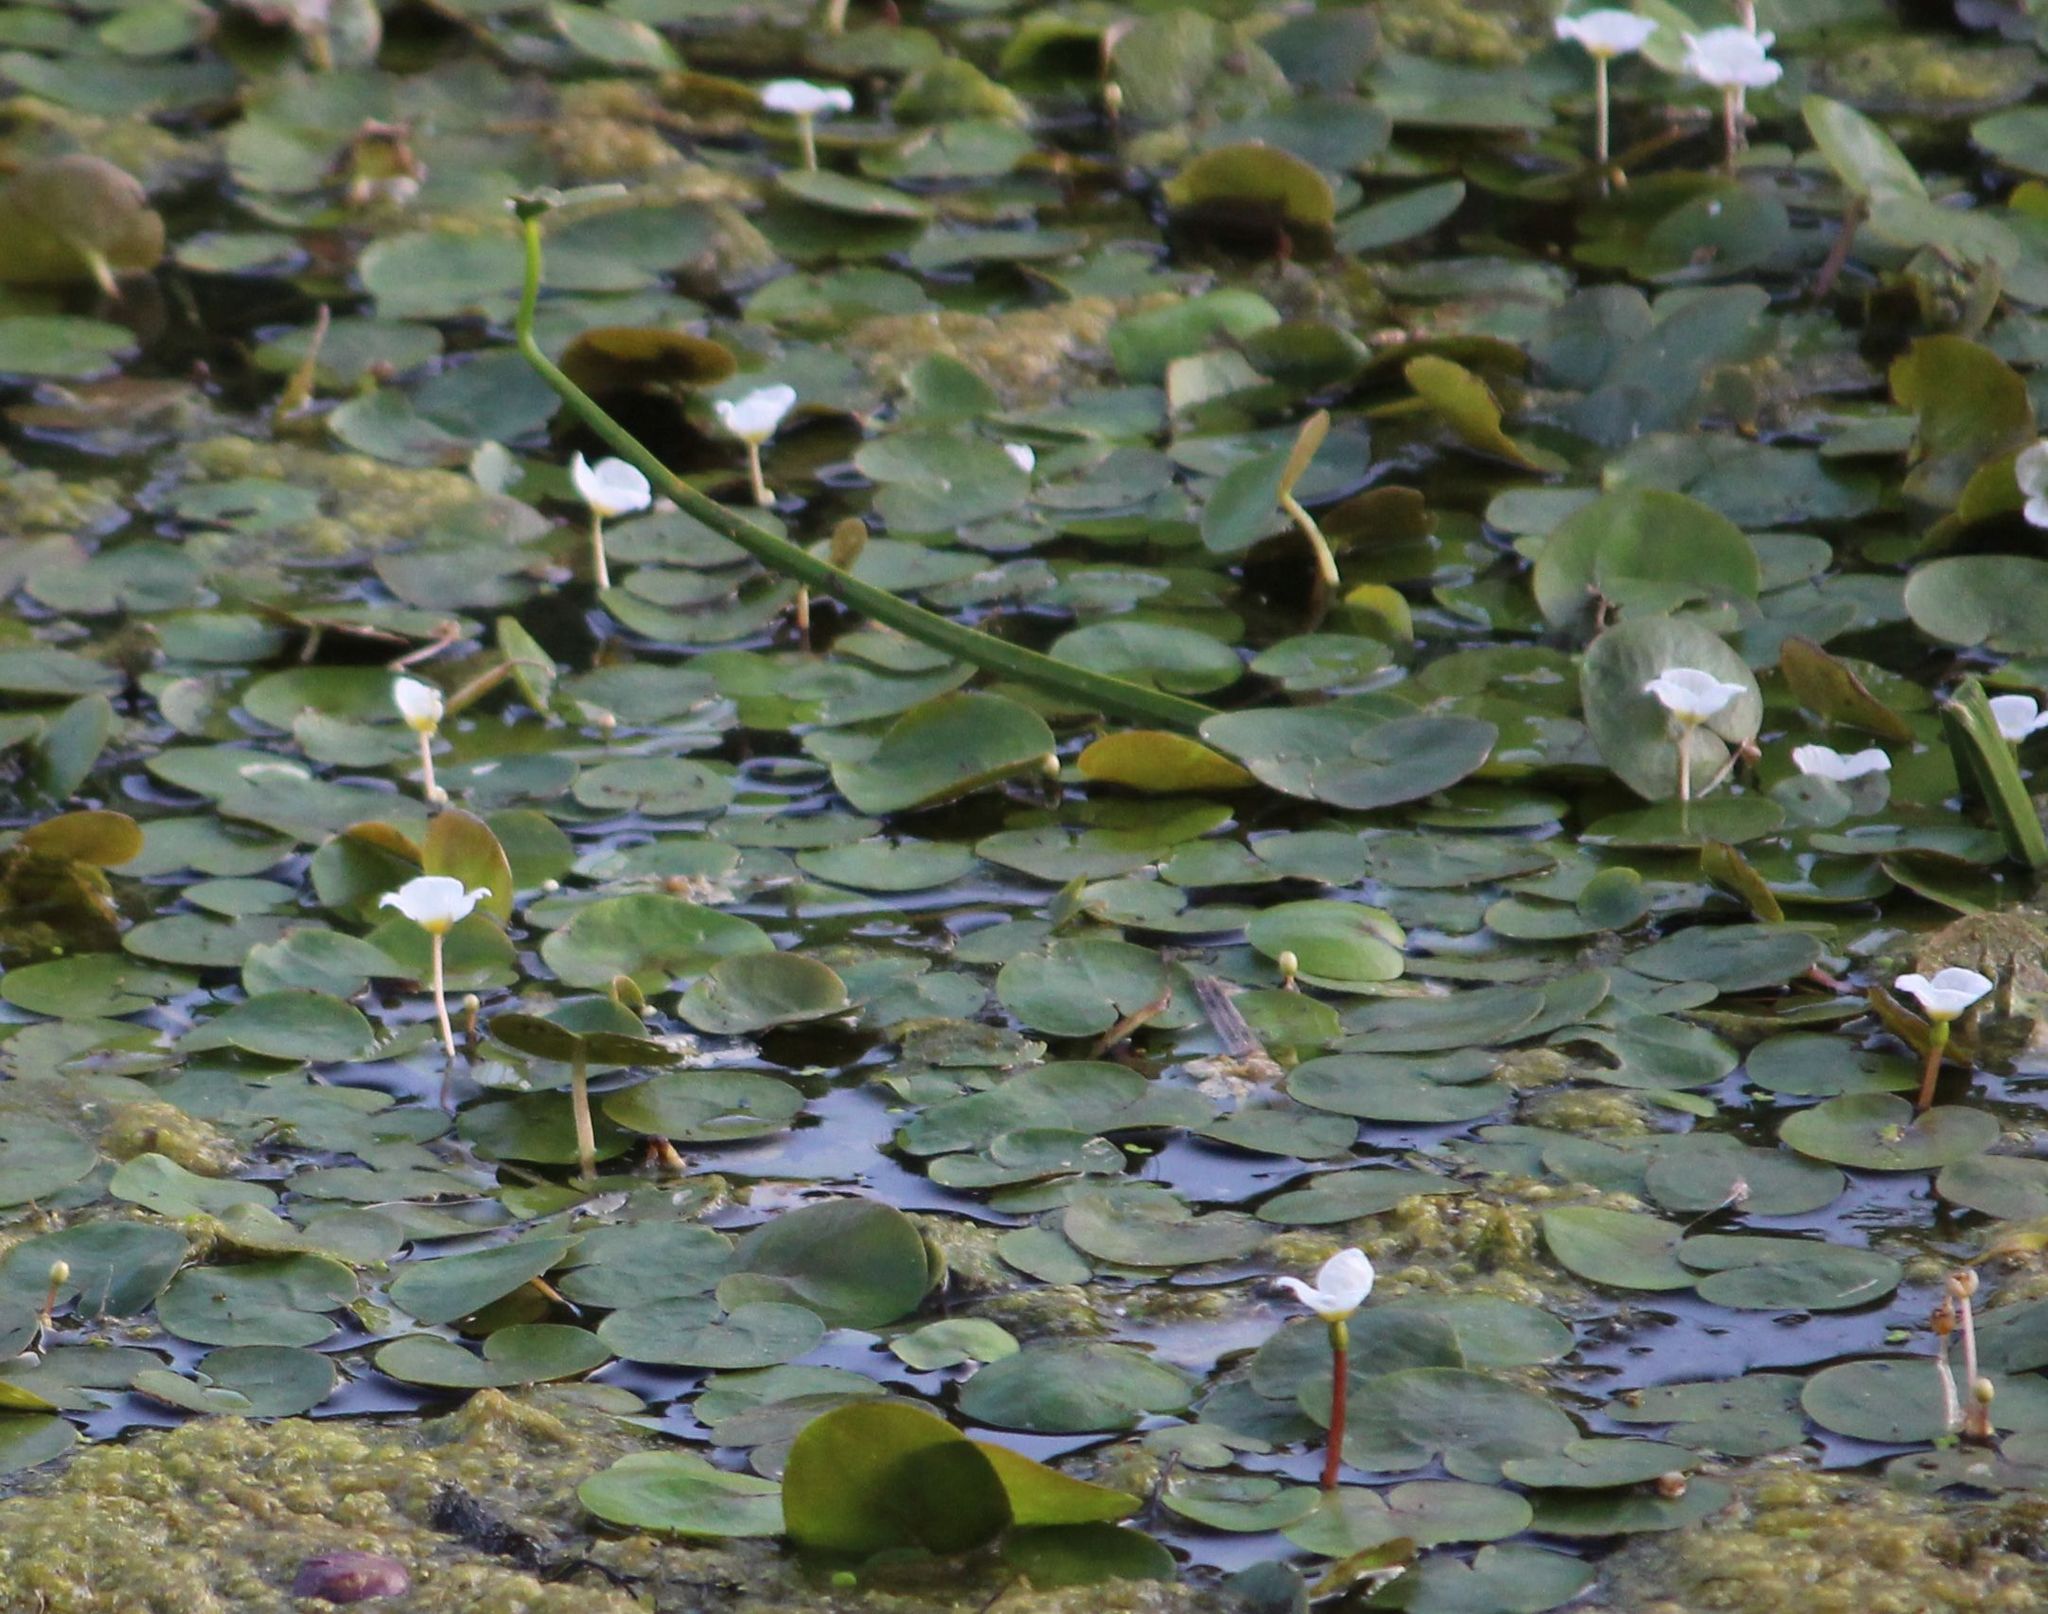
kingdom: Plantae
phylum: Tracheophyta
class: Liliopsida
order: Alismatales
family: Hydrocharitaceae
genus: Hydrocharis
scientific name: Hydrocharis morsus-ranae
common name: Frogbit
